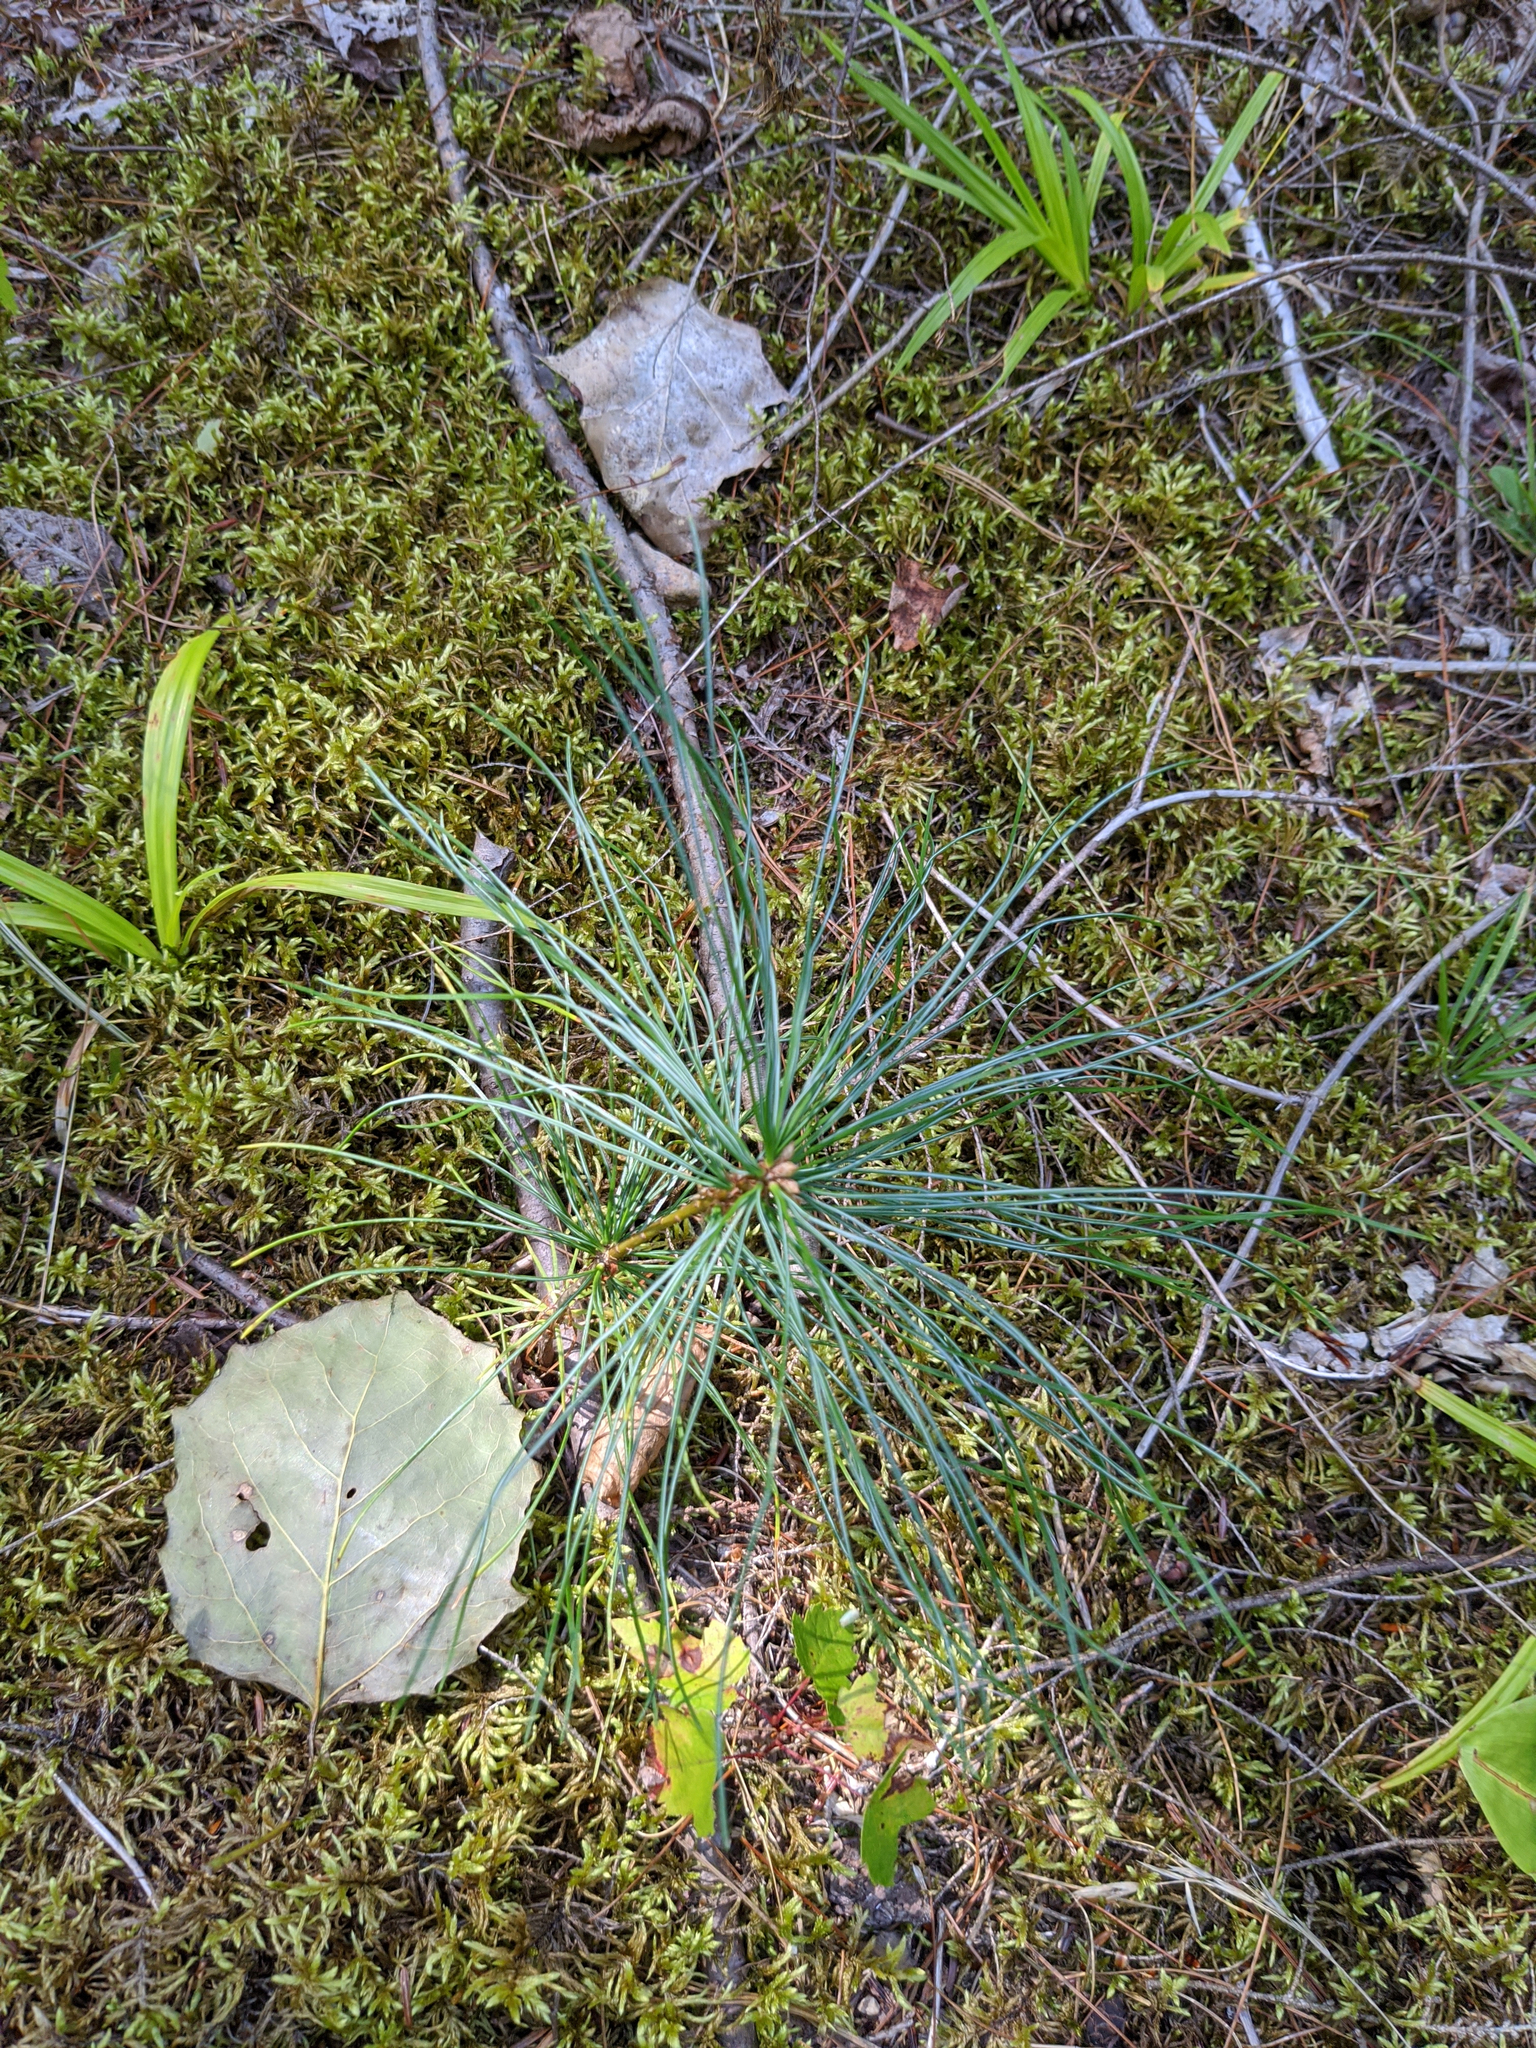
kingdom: Plantae
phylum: Tracheophyta
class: Pinopsida
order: Pinales
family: Pinaceae
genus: Pinus
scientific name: Pinus strobus
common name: Weymouth pine
